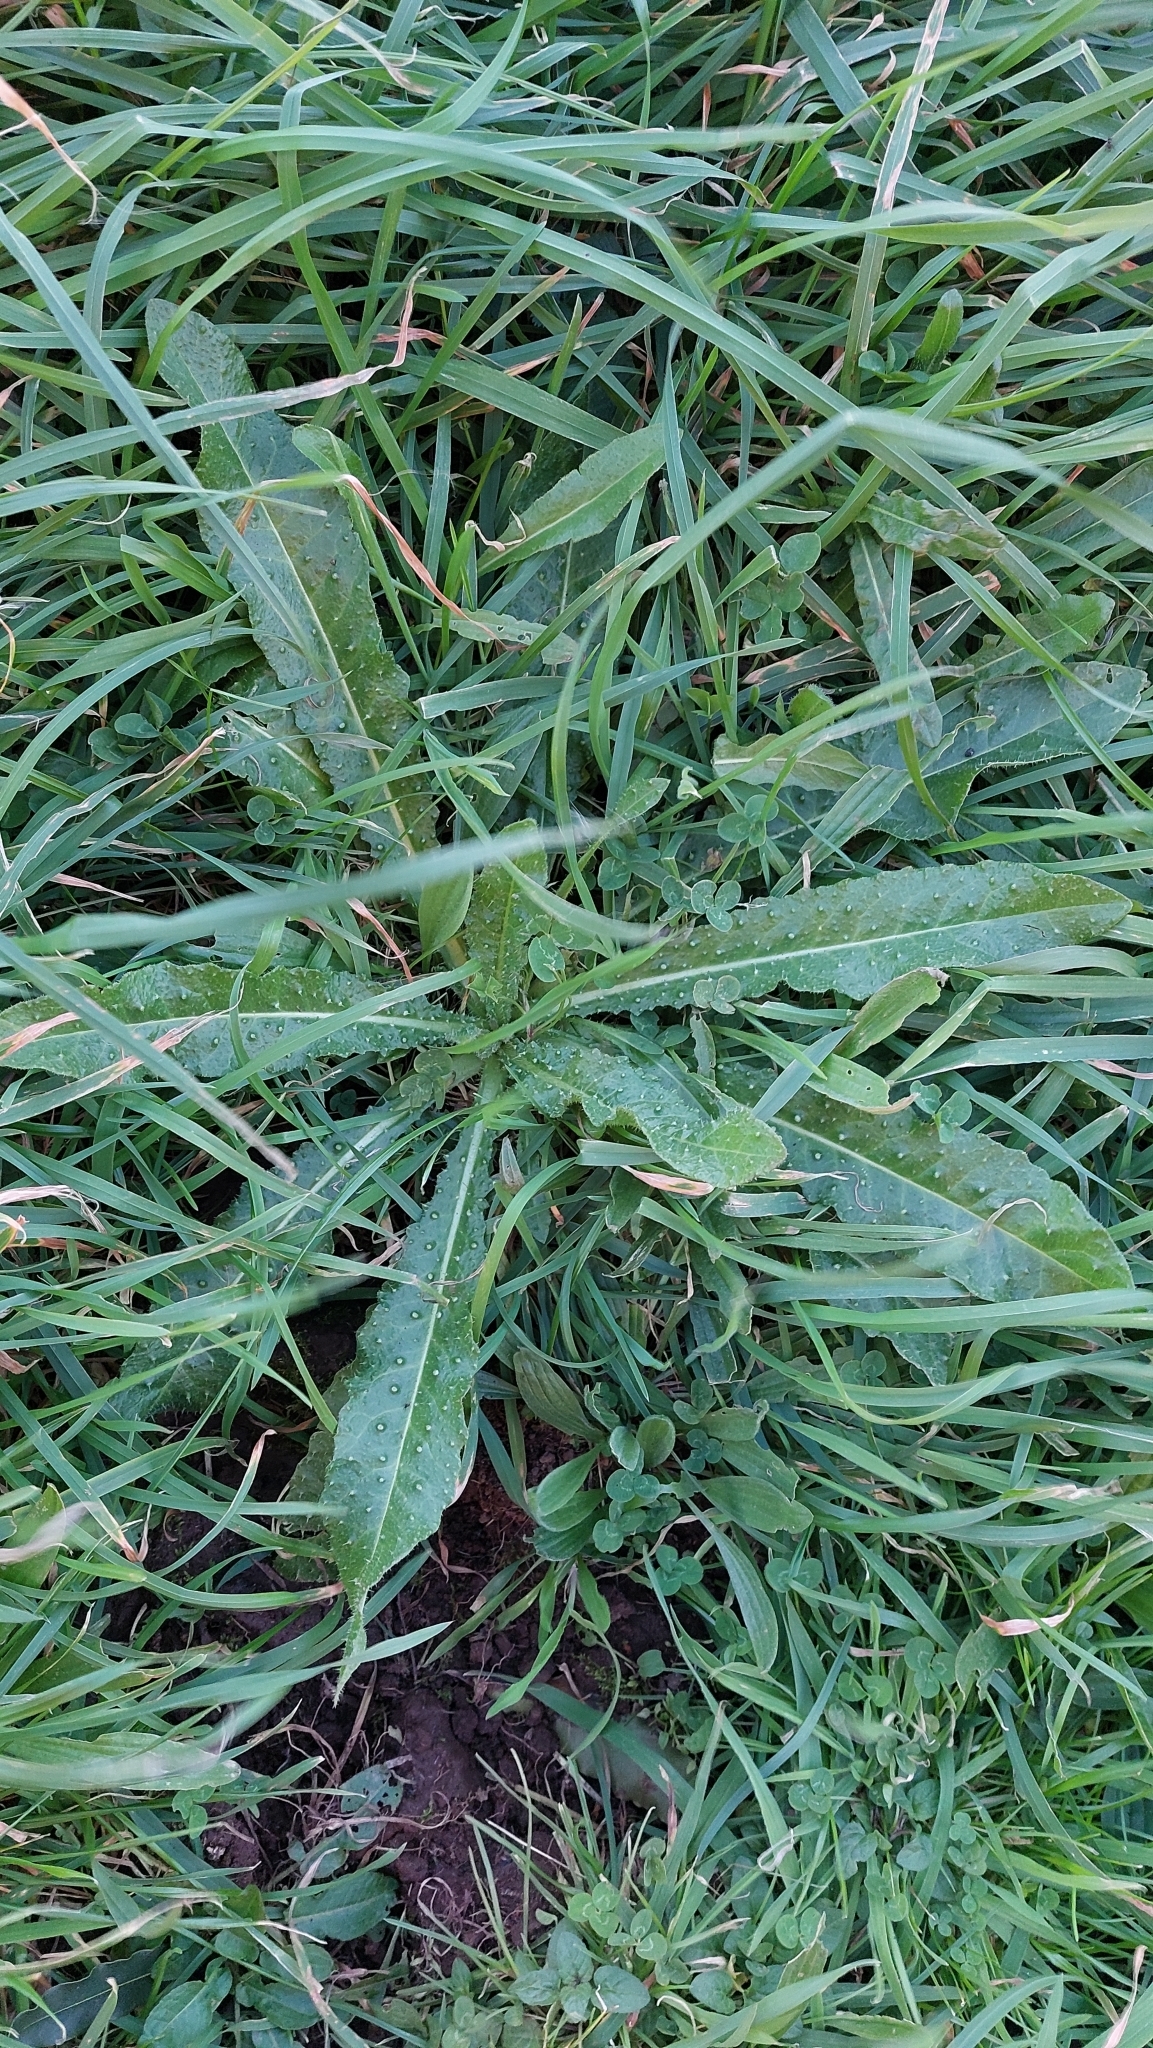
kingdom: Plantae
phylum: Tracheophyta
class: Magnoliopsida
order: Asterales
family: Asteraceae
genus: Helminthotheca
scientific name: Helminthotheca echioides
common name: Ox-tongue
